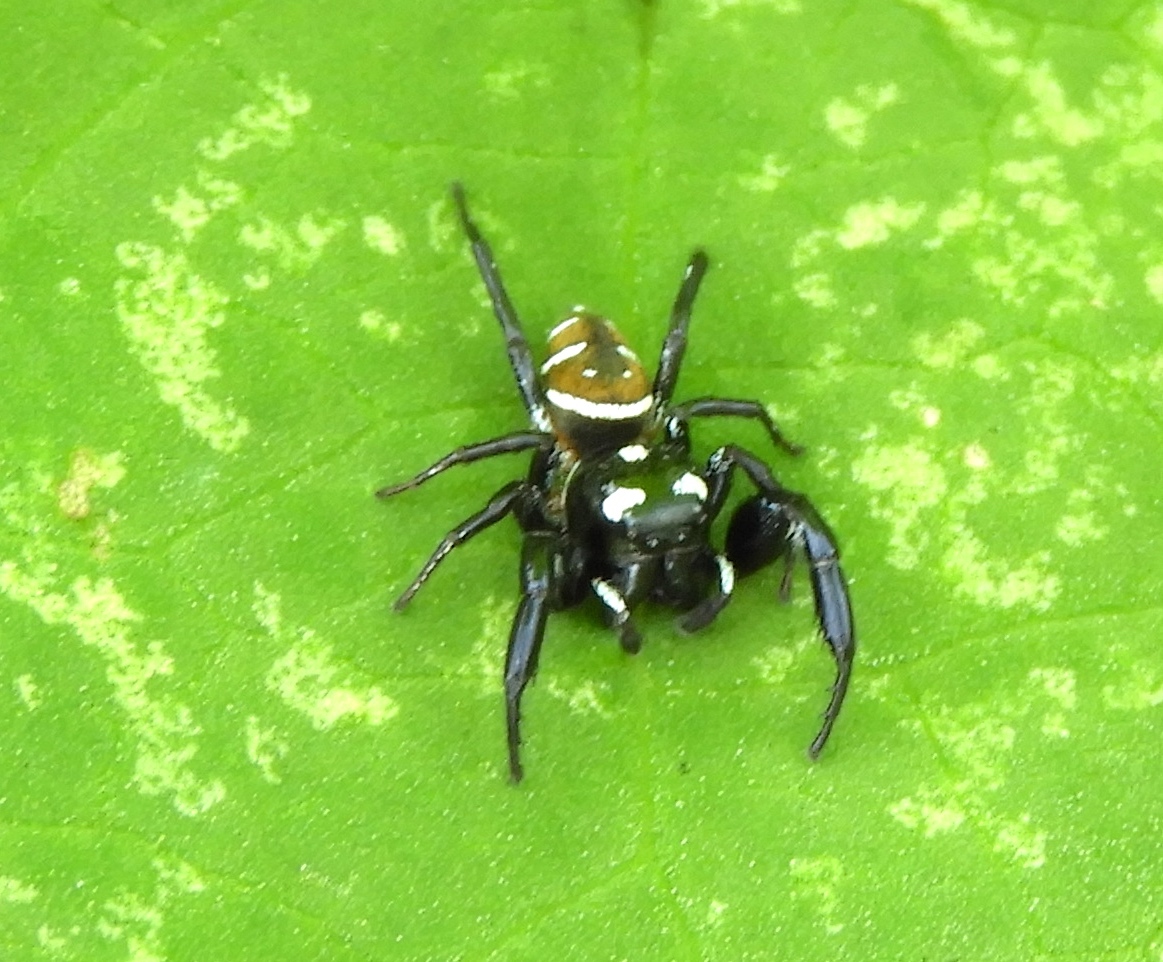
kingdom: Animalia
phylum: Arthropoda
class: Arachnida
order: Araneae
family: Salticidae
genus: Sassacus
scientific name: Sassacus
